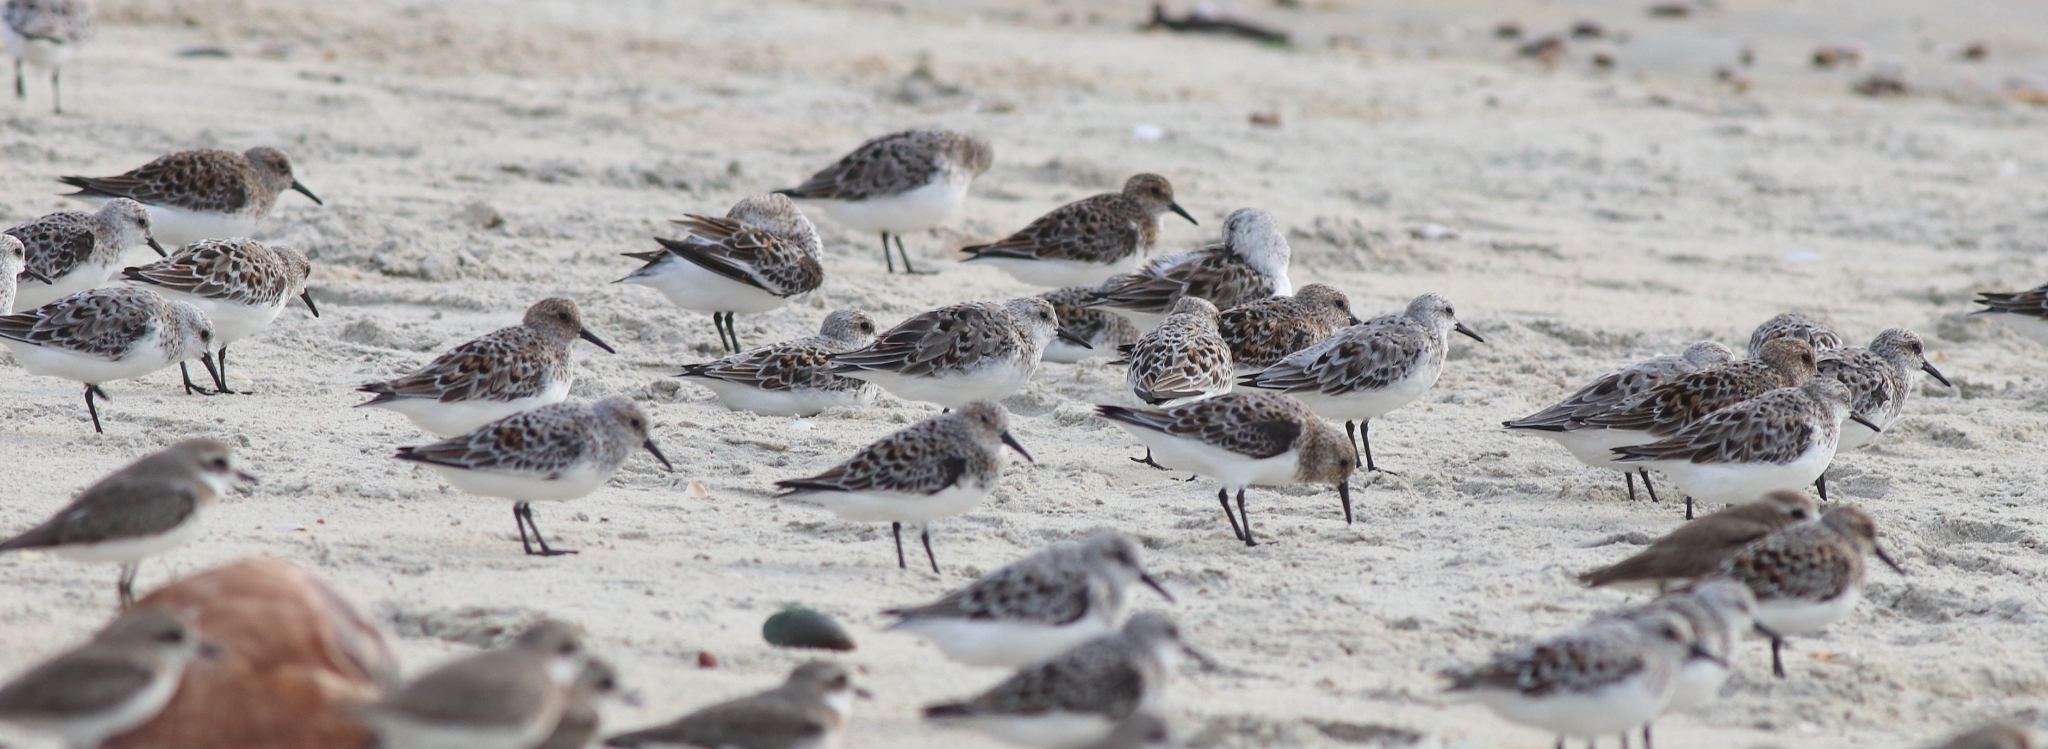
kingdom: Animalia
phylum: Chordata
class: Aves
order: Charadriiformes
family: Scolopacidae
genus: Calidris
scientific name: Calidris alba
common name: Sanderling
